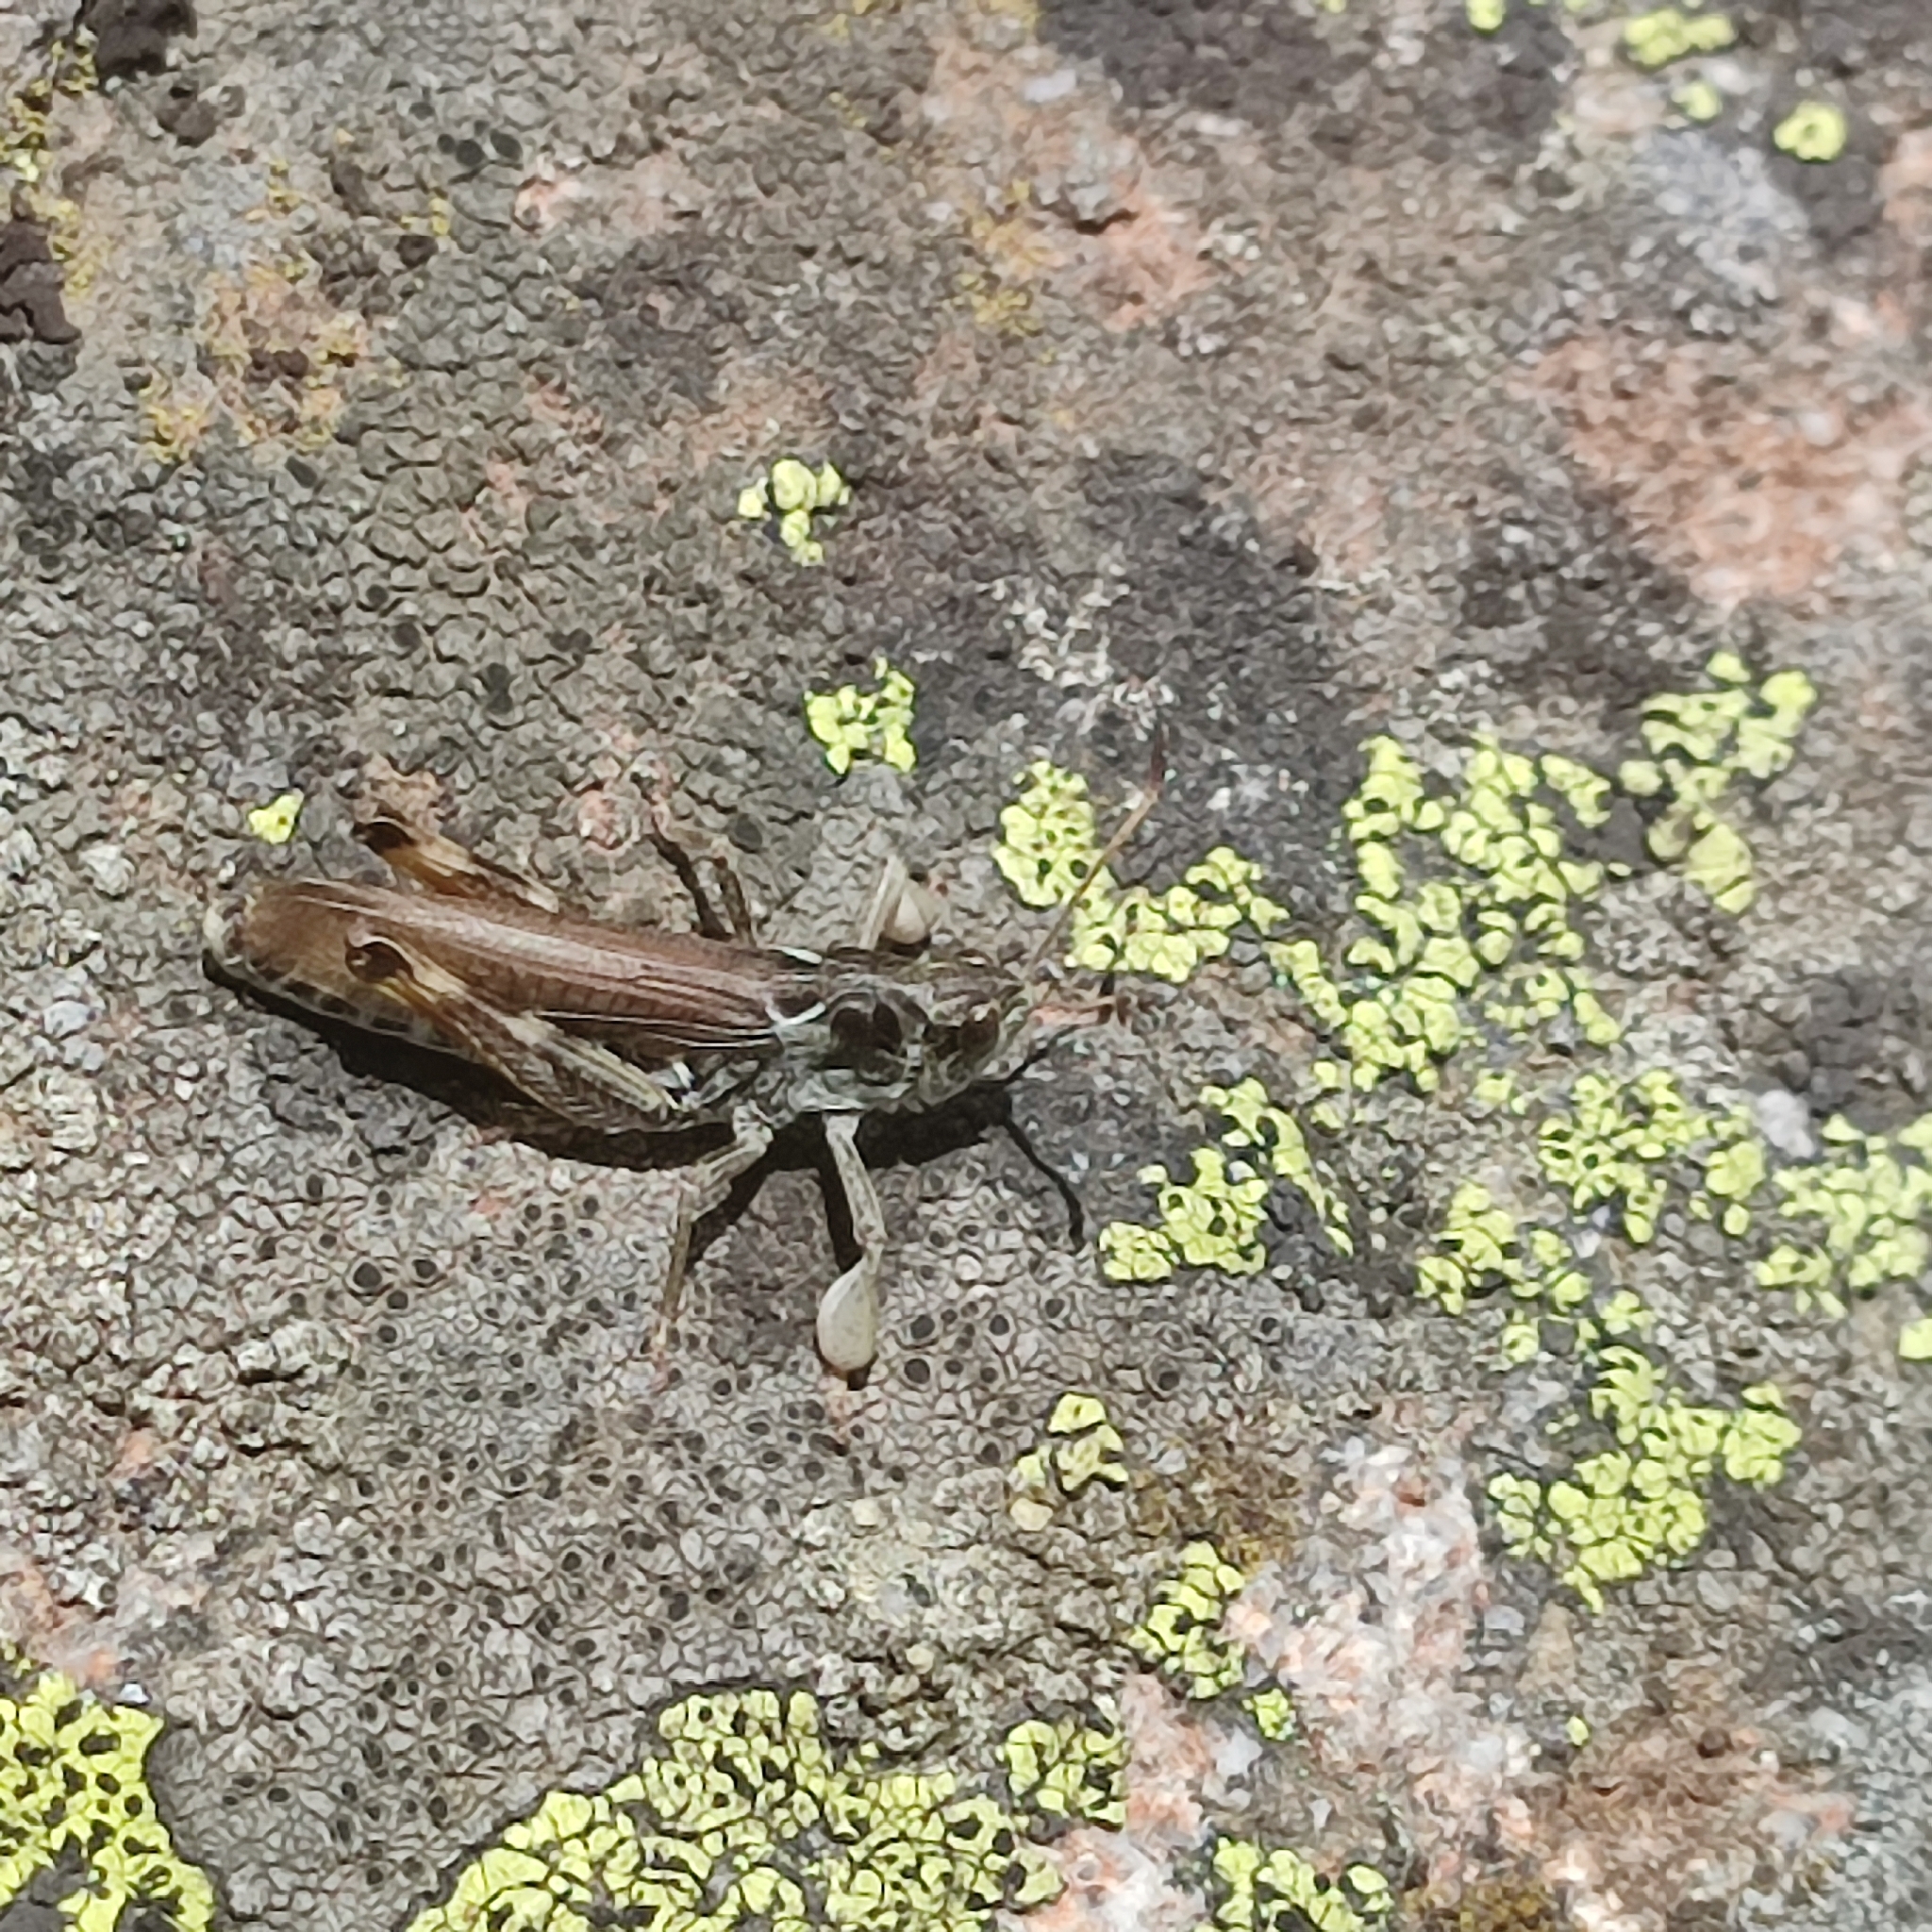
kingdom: Animalia
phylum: Arthropoda
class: Insecta
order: Orthoptera
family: Acrididae
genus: Gomphocerus
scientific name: Gomphocerus sibiricus
